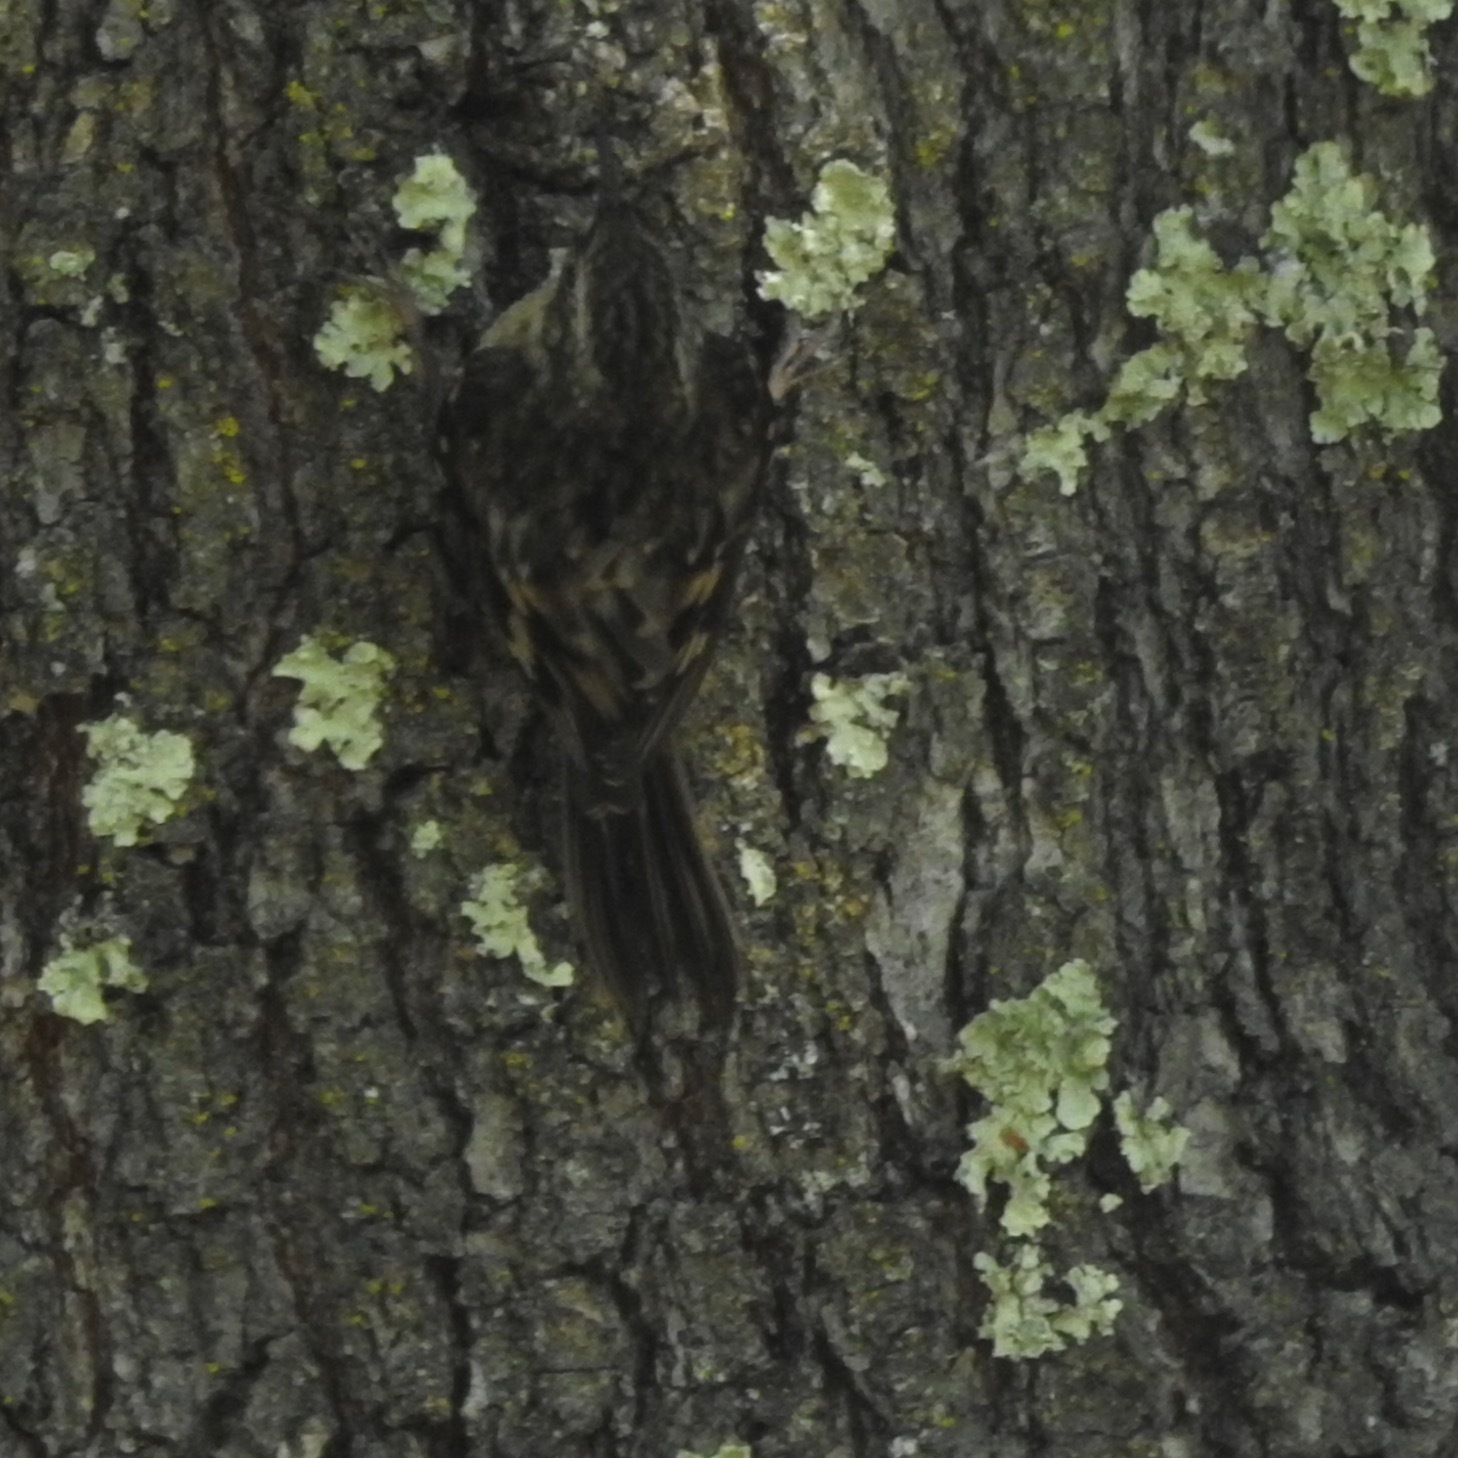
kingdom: Animalia
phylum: Chordata
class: Aves
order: Passeriformes
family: Certhiidae
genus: Certhia
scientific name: Certhia americana
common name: Brown creeper
